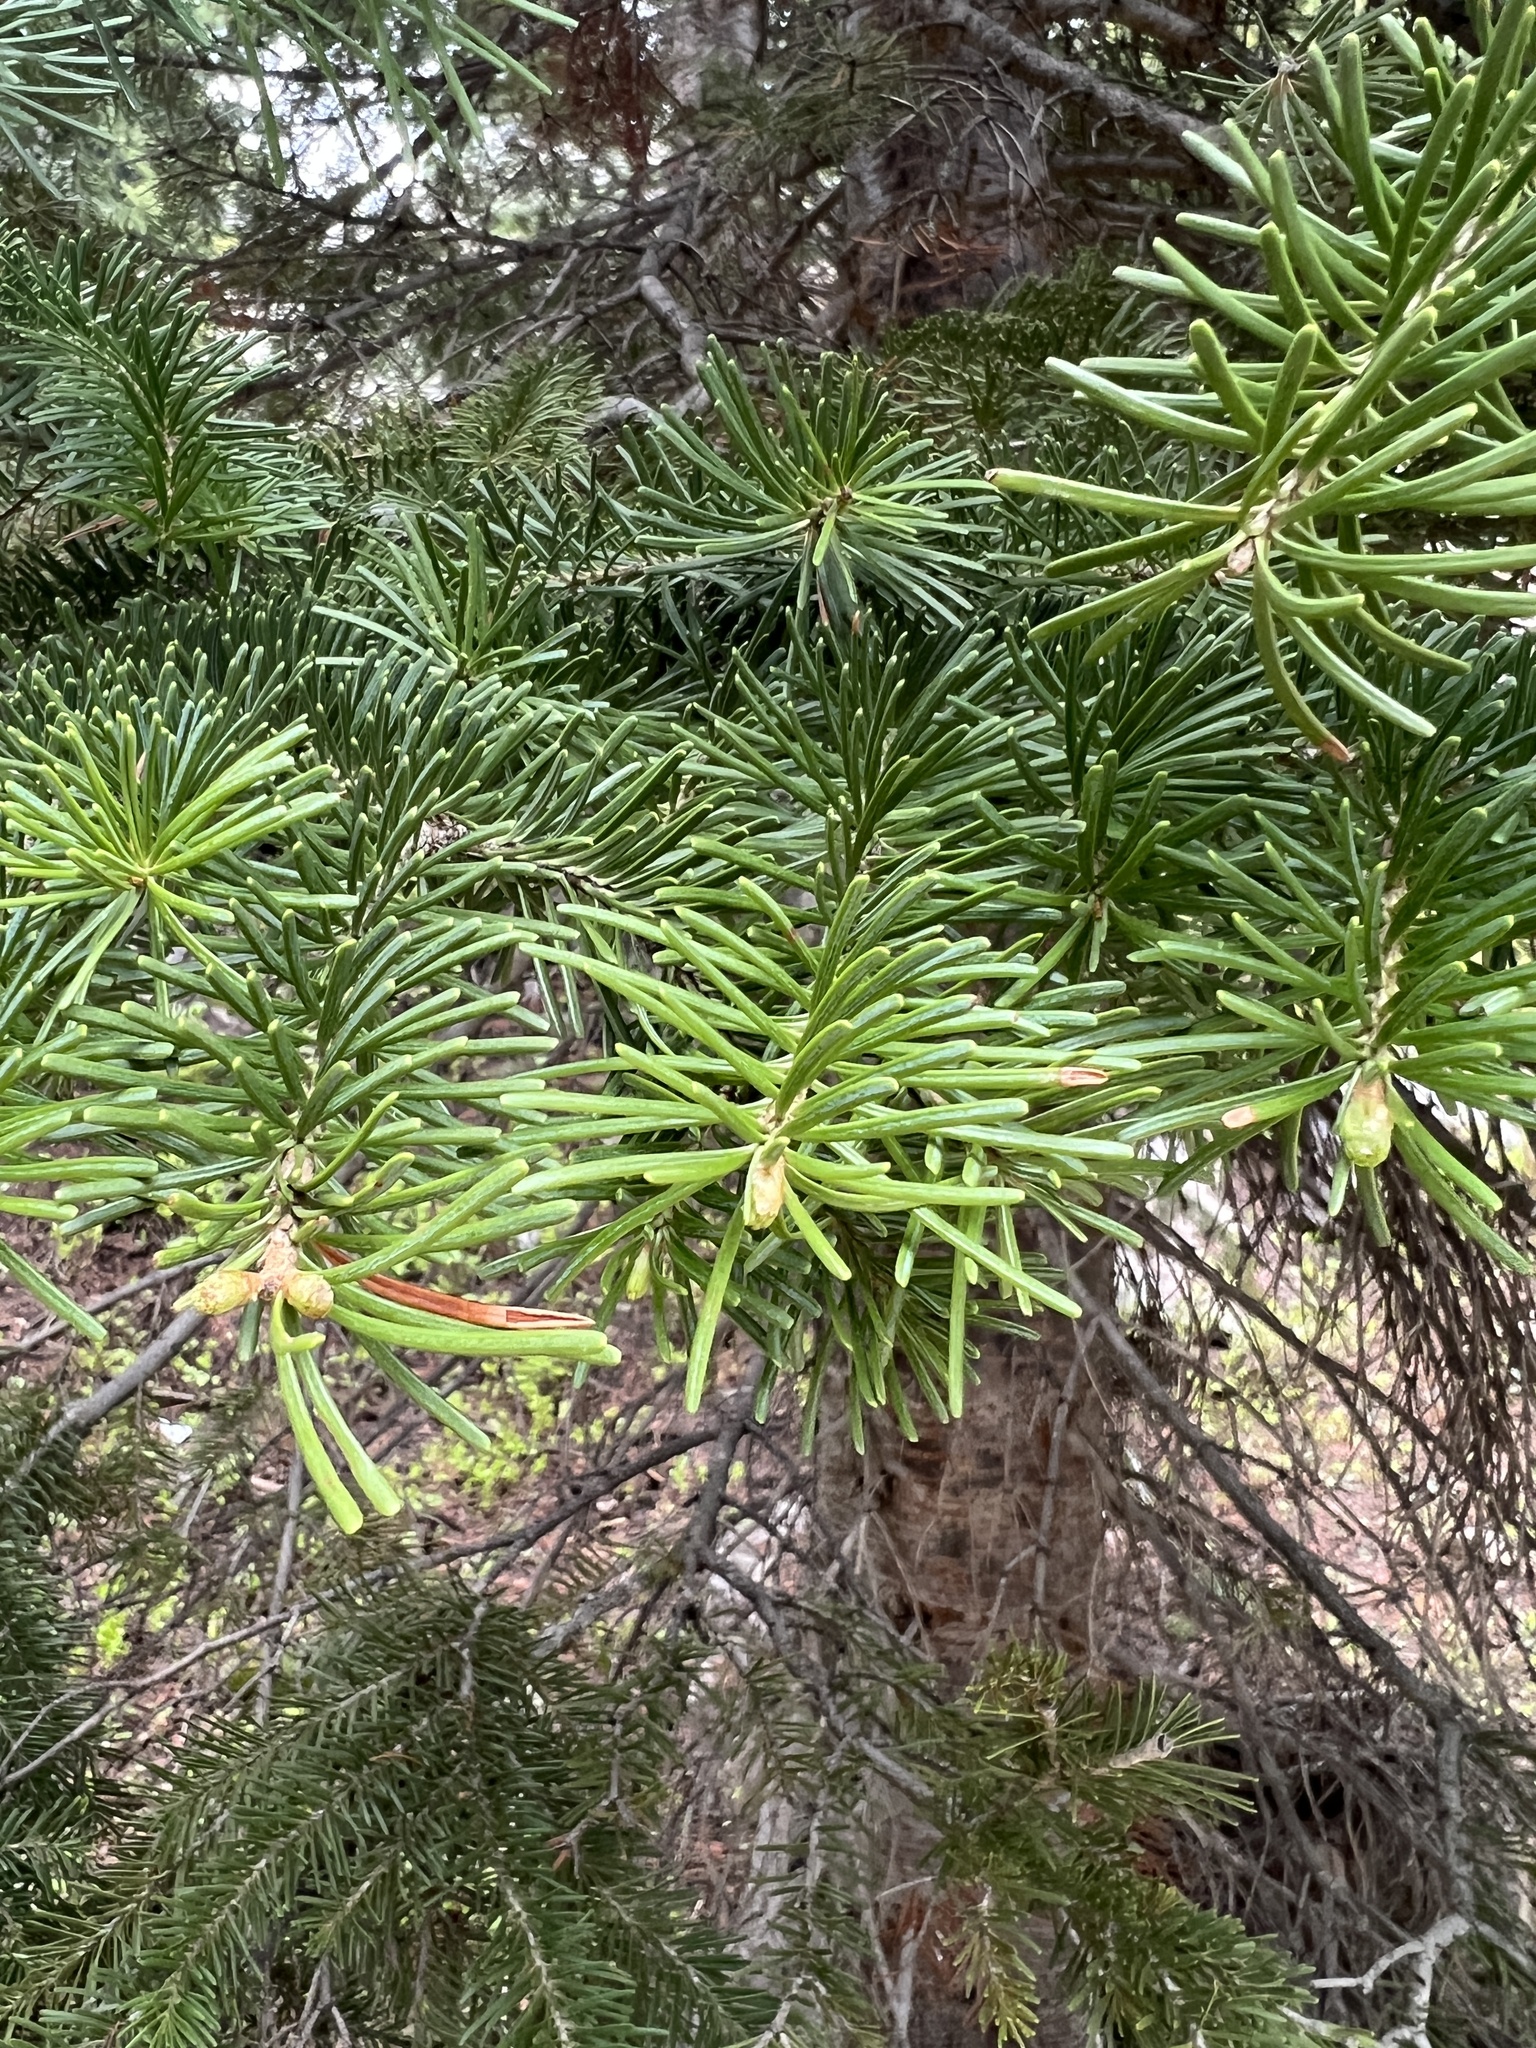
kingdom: Plantae
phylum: Tracheophyta
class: Pinopsida
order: Pinales
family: Pinaceae
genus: Abies
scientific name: Abies lasiocarpa
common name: Subalpine fir
